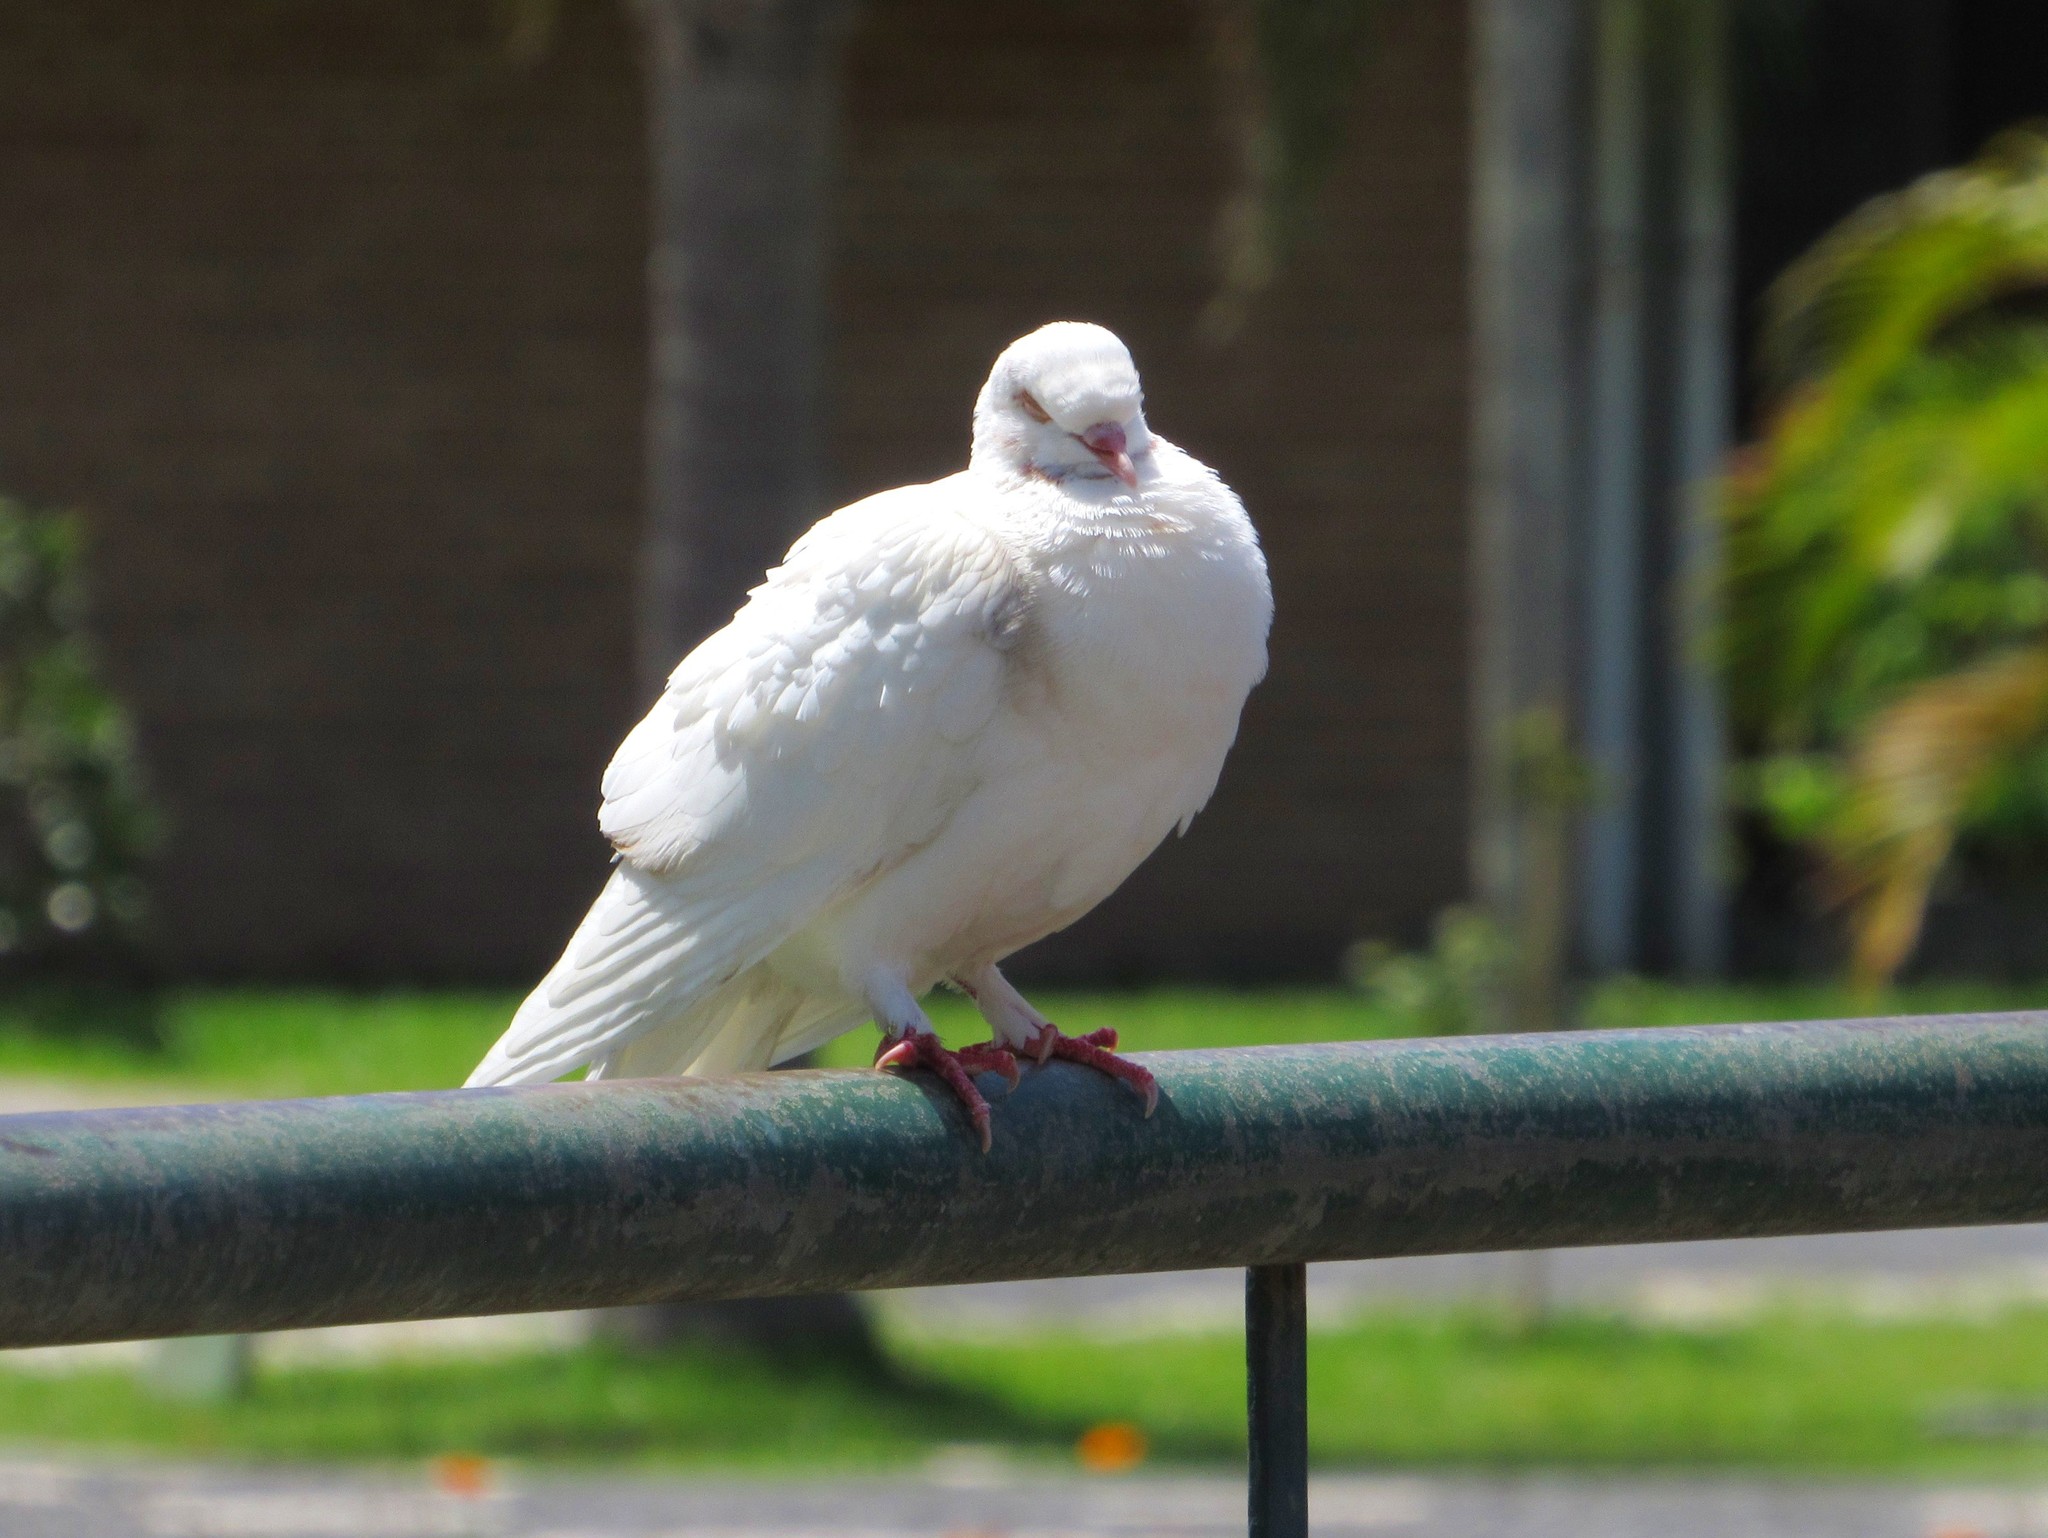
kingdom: Animalia
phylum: Chordata
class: Aves
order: Columbiformes
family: Columbidae
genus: Columba
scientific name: Columba livia
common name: Rock pigeon
